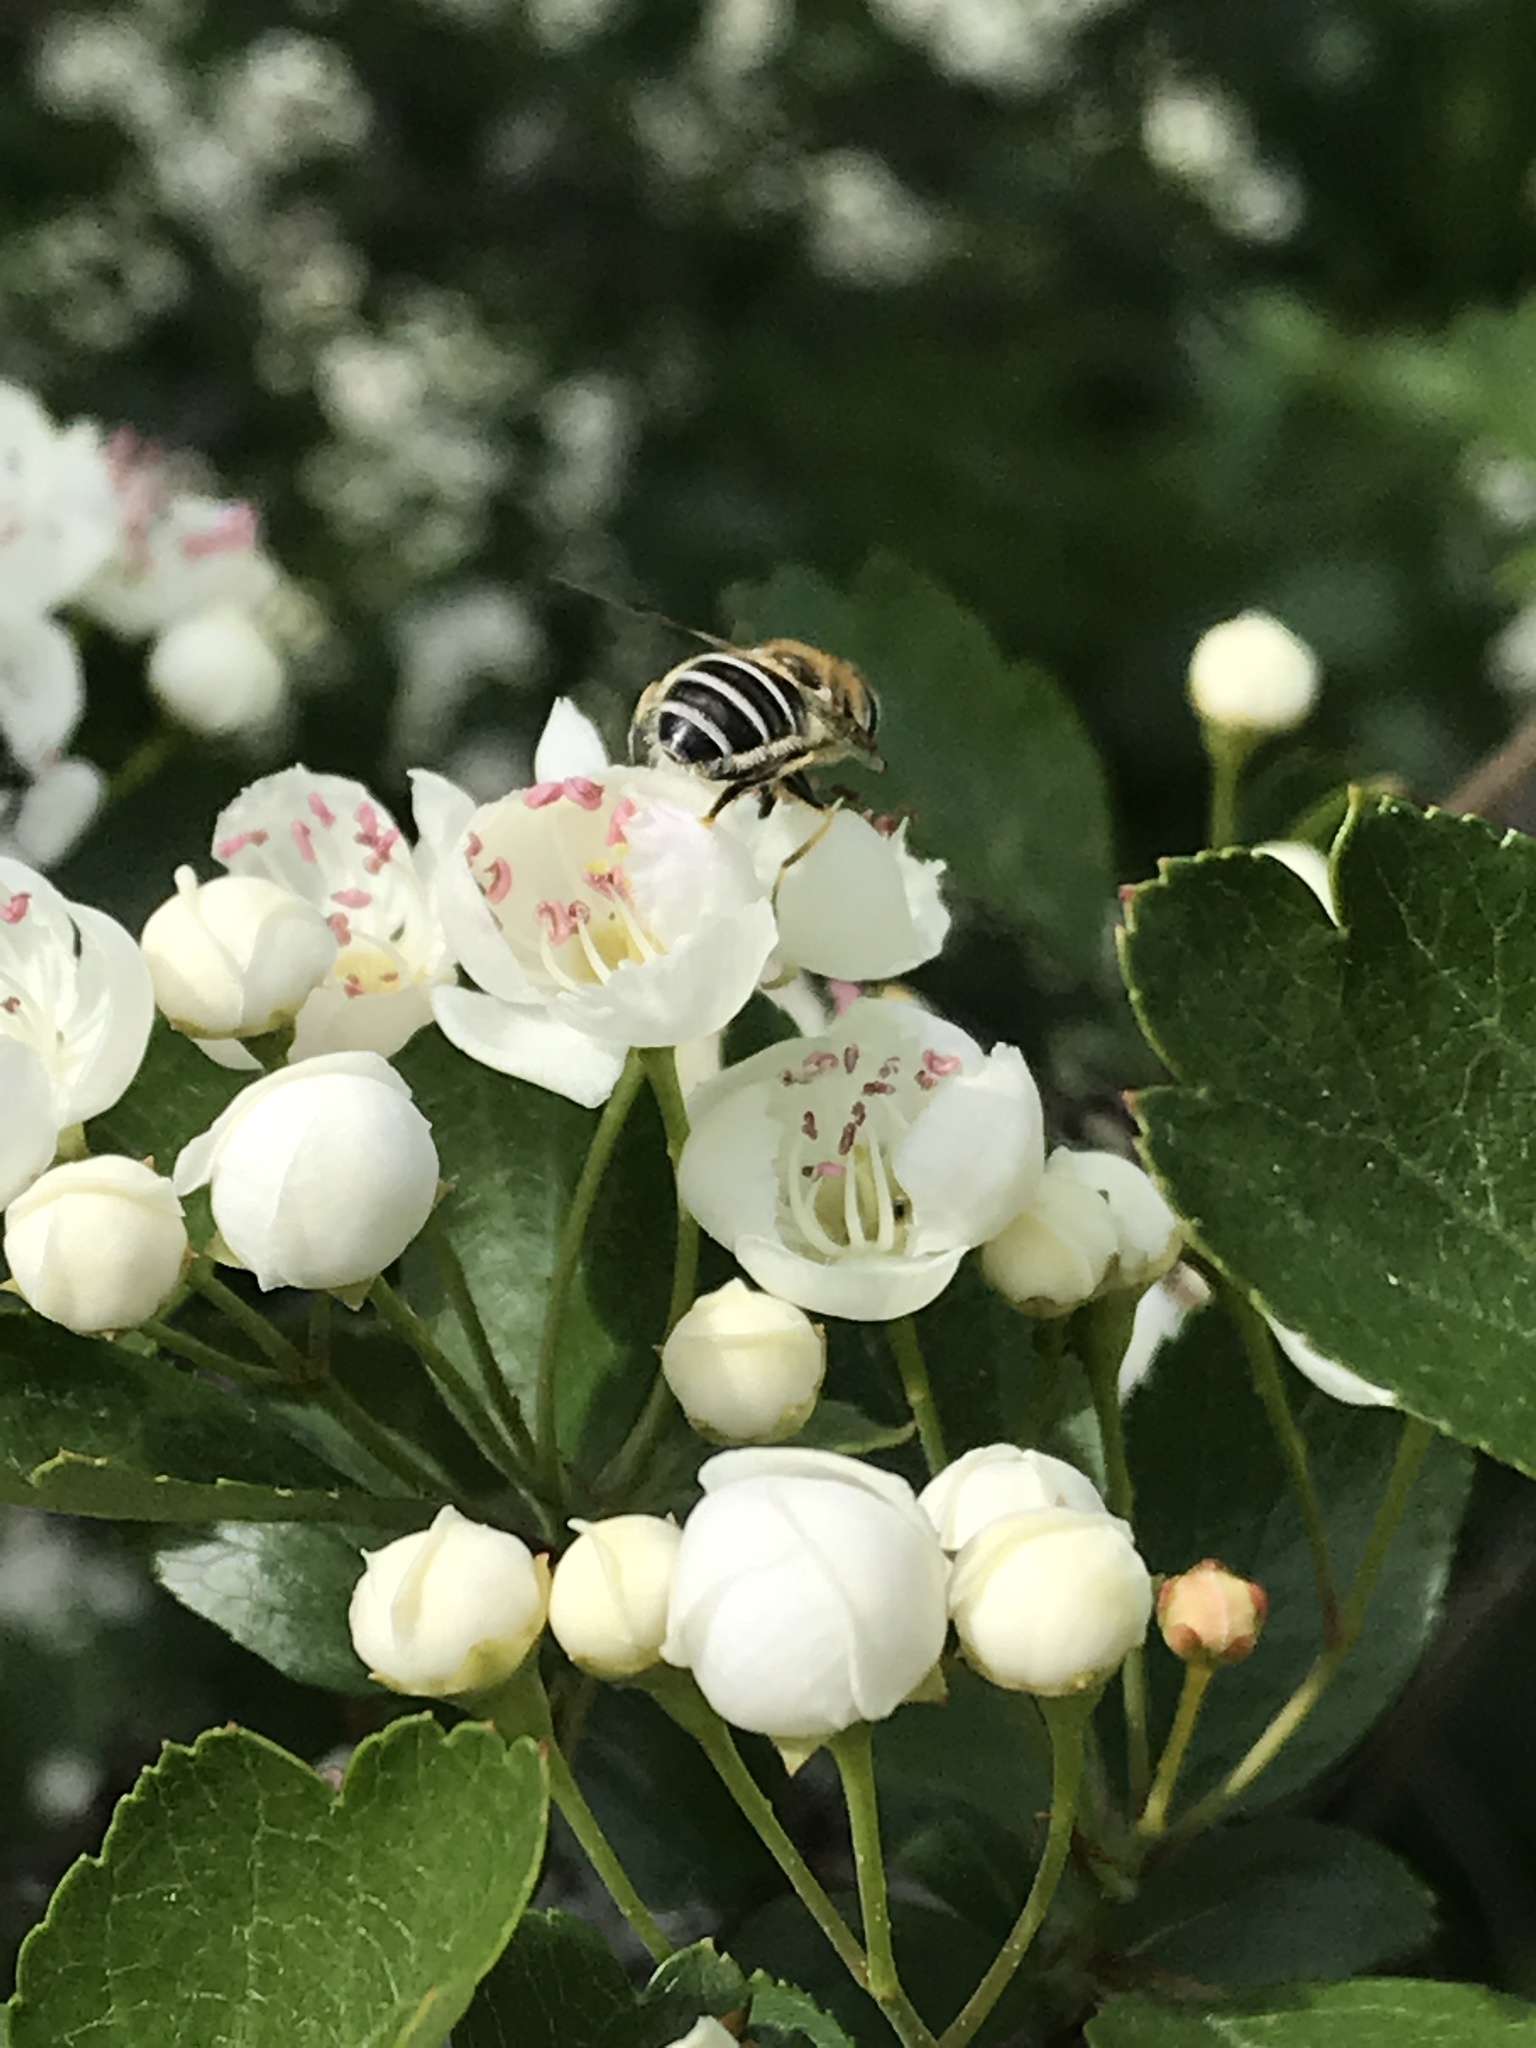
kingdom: Animalia
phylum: Arthropoda
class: Insecta
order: Diptera
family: Syrphidae
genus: Eristalis
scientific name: Eristalis arbustorum
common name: Hover fly
